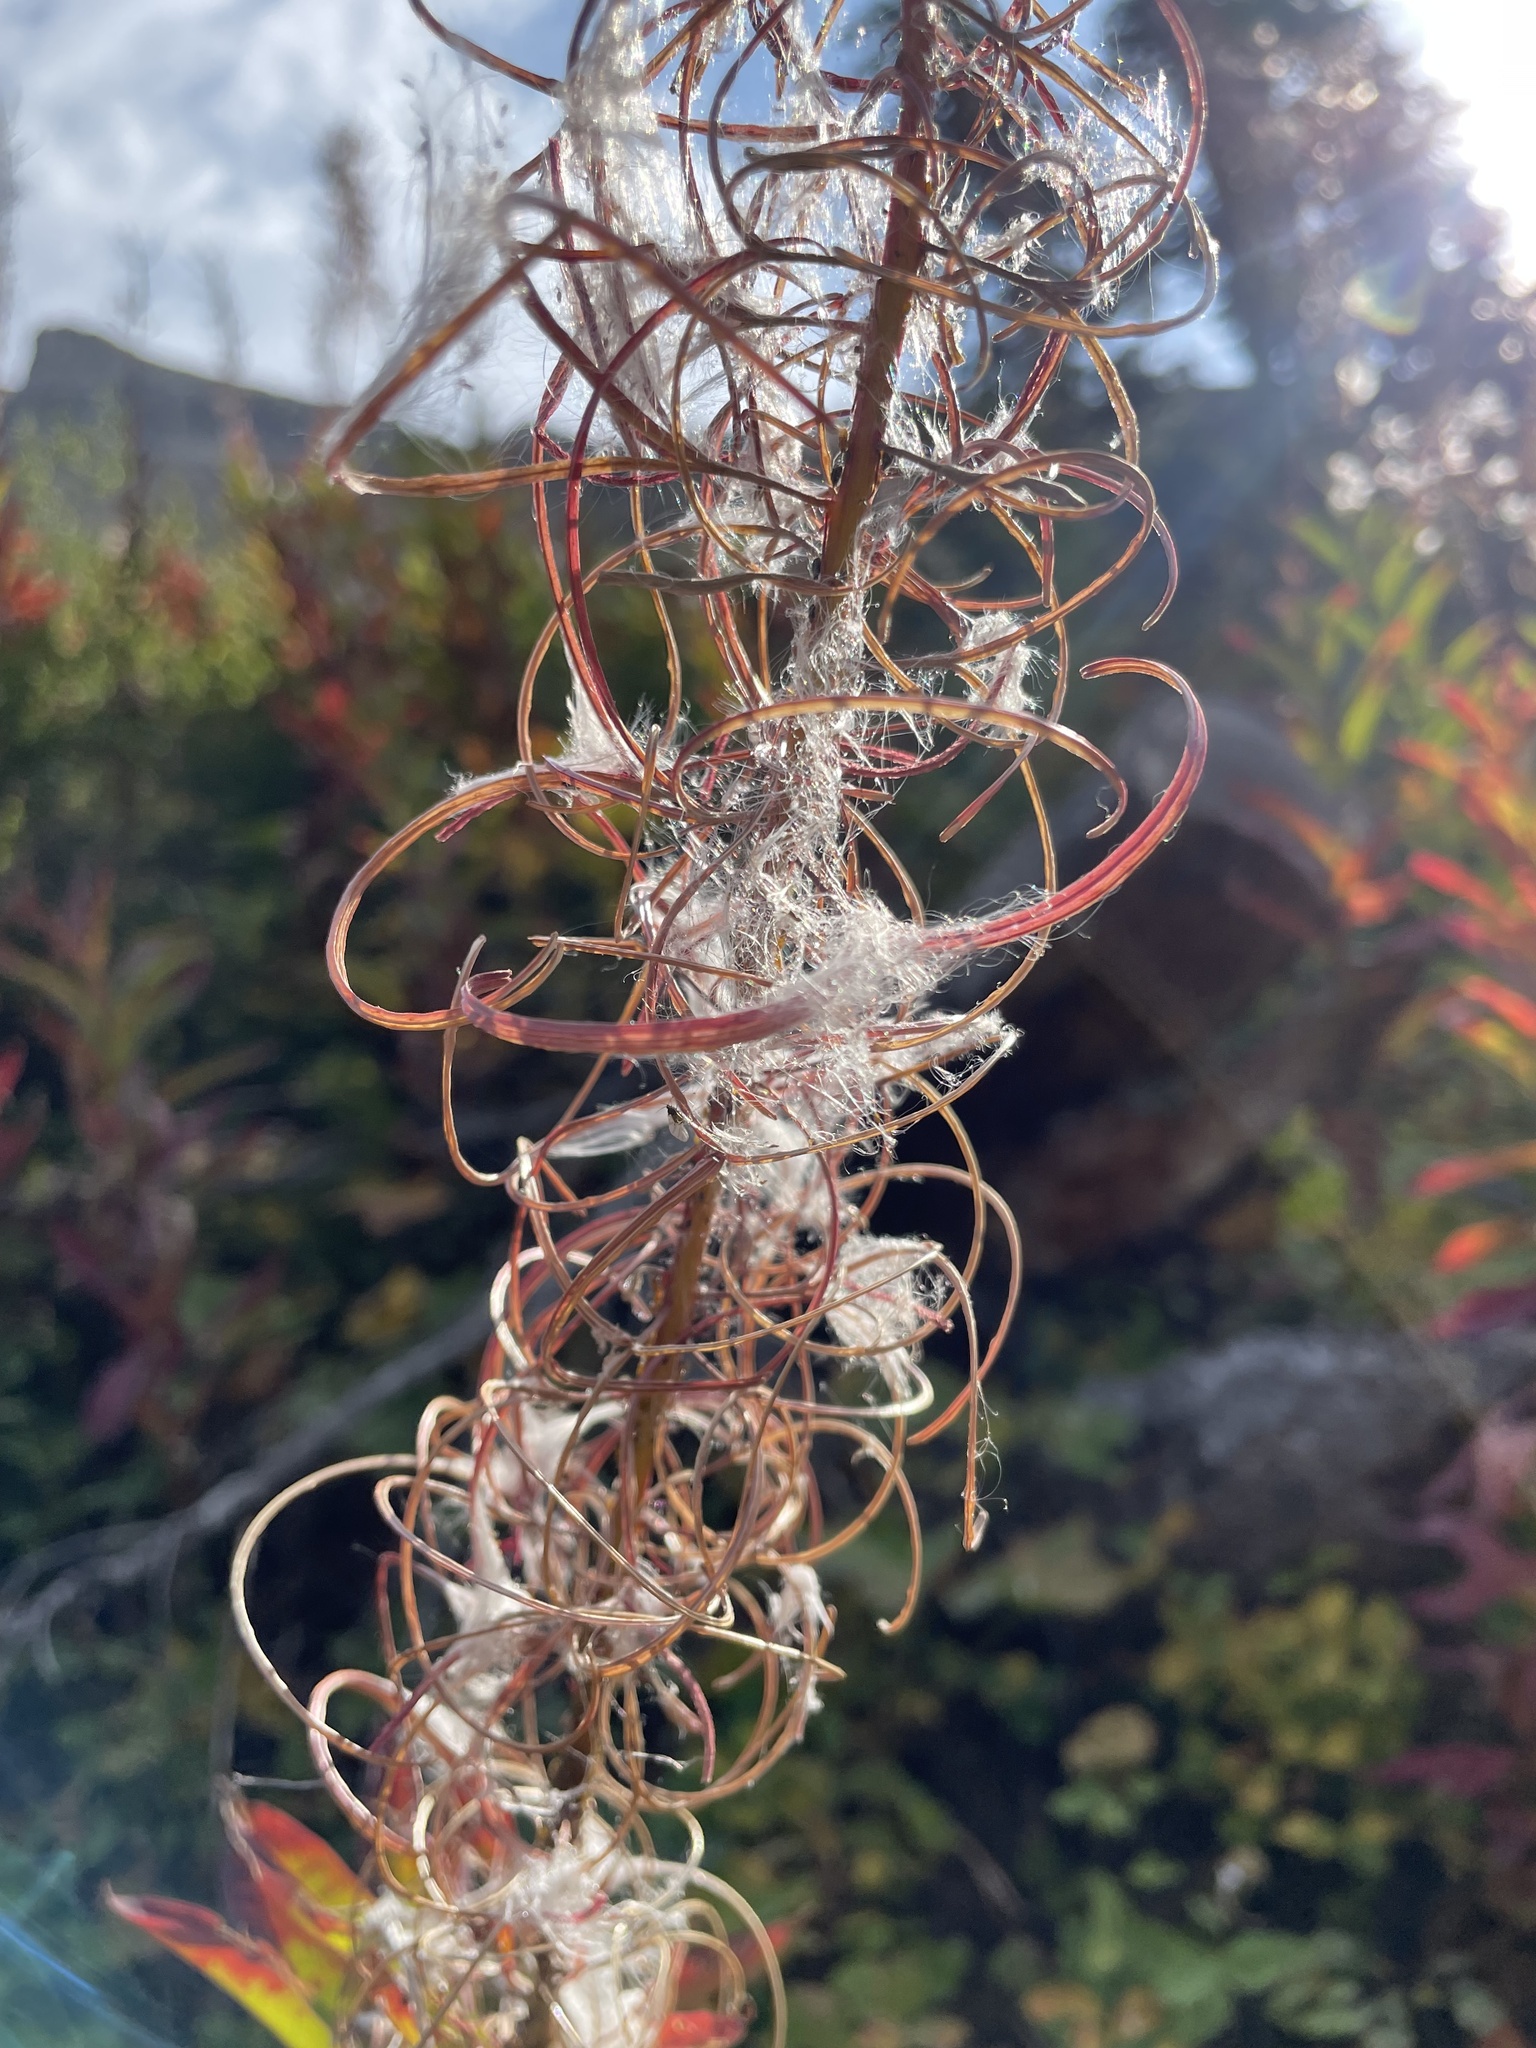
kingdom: Plantae
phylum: Tracheophyta
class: Magnoliopsida
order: Myrtales
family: Onagraceae
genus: Chamaenerion
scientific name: Chamaenerion angustifolium
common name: Fireweed
